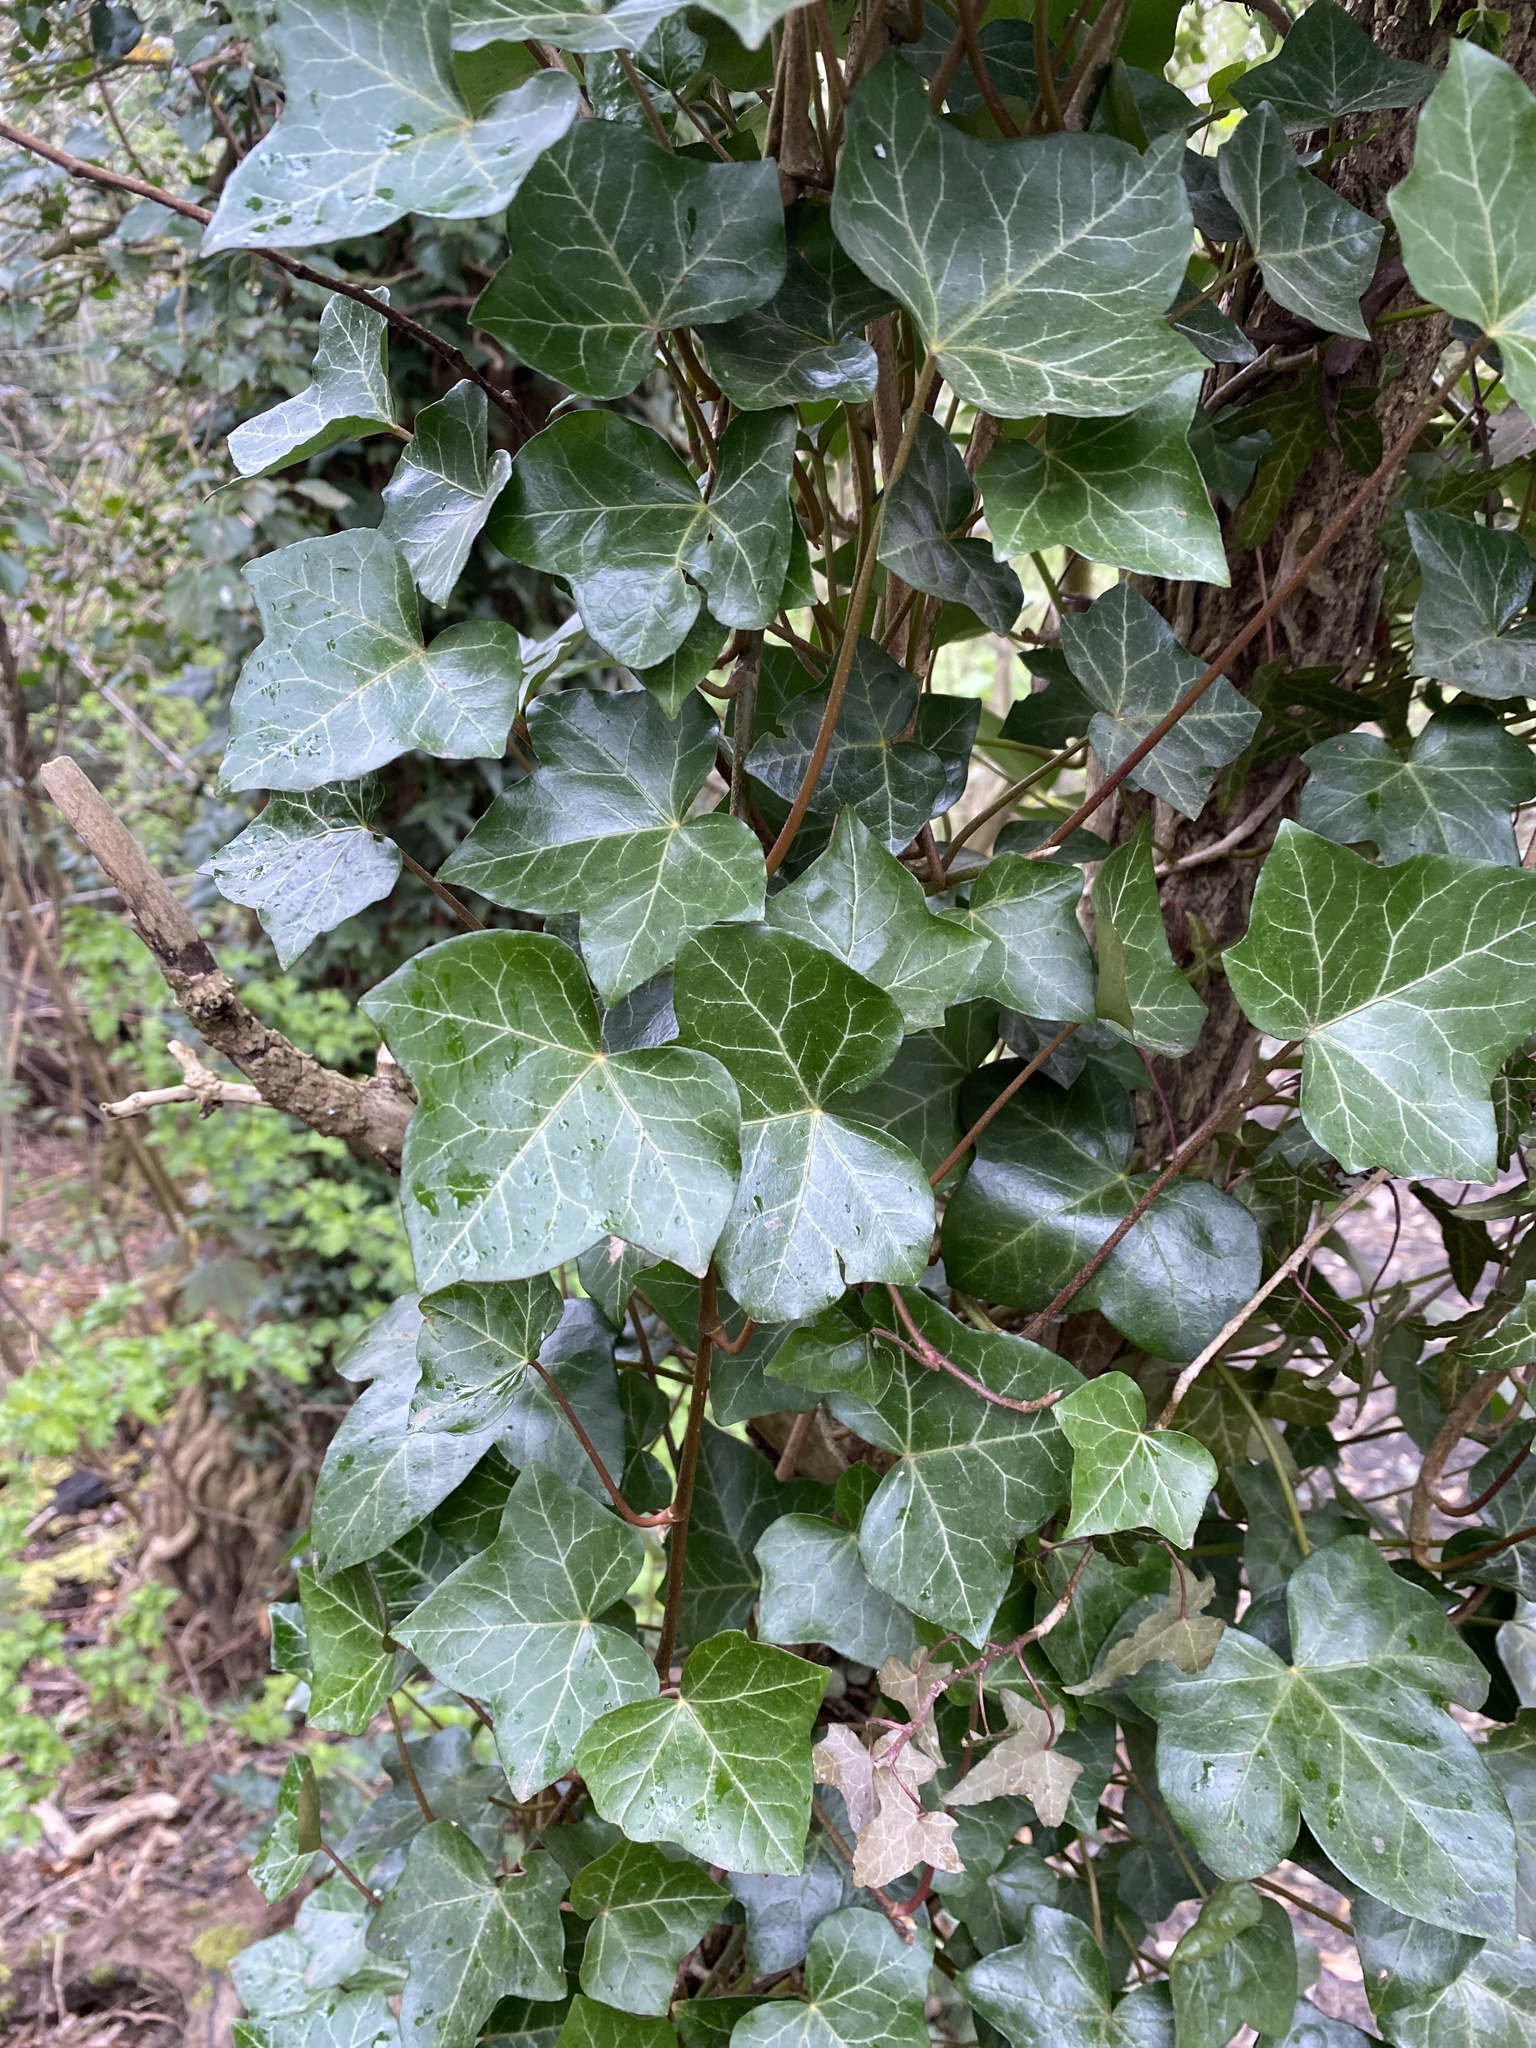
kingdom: Plantae
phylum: Tracheophyta
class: Magnoliopsida
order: Apiales
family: Araliaceae
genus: Hedera
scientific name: Hedera helix
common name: Ivy
